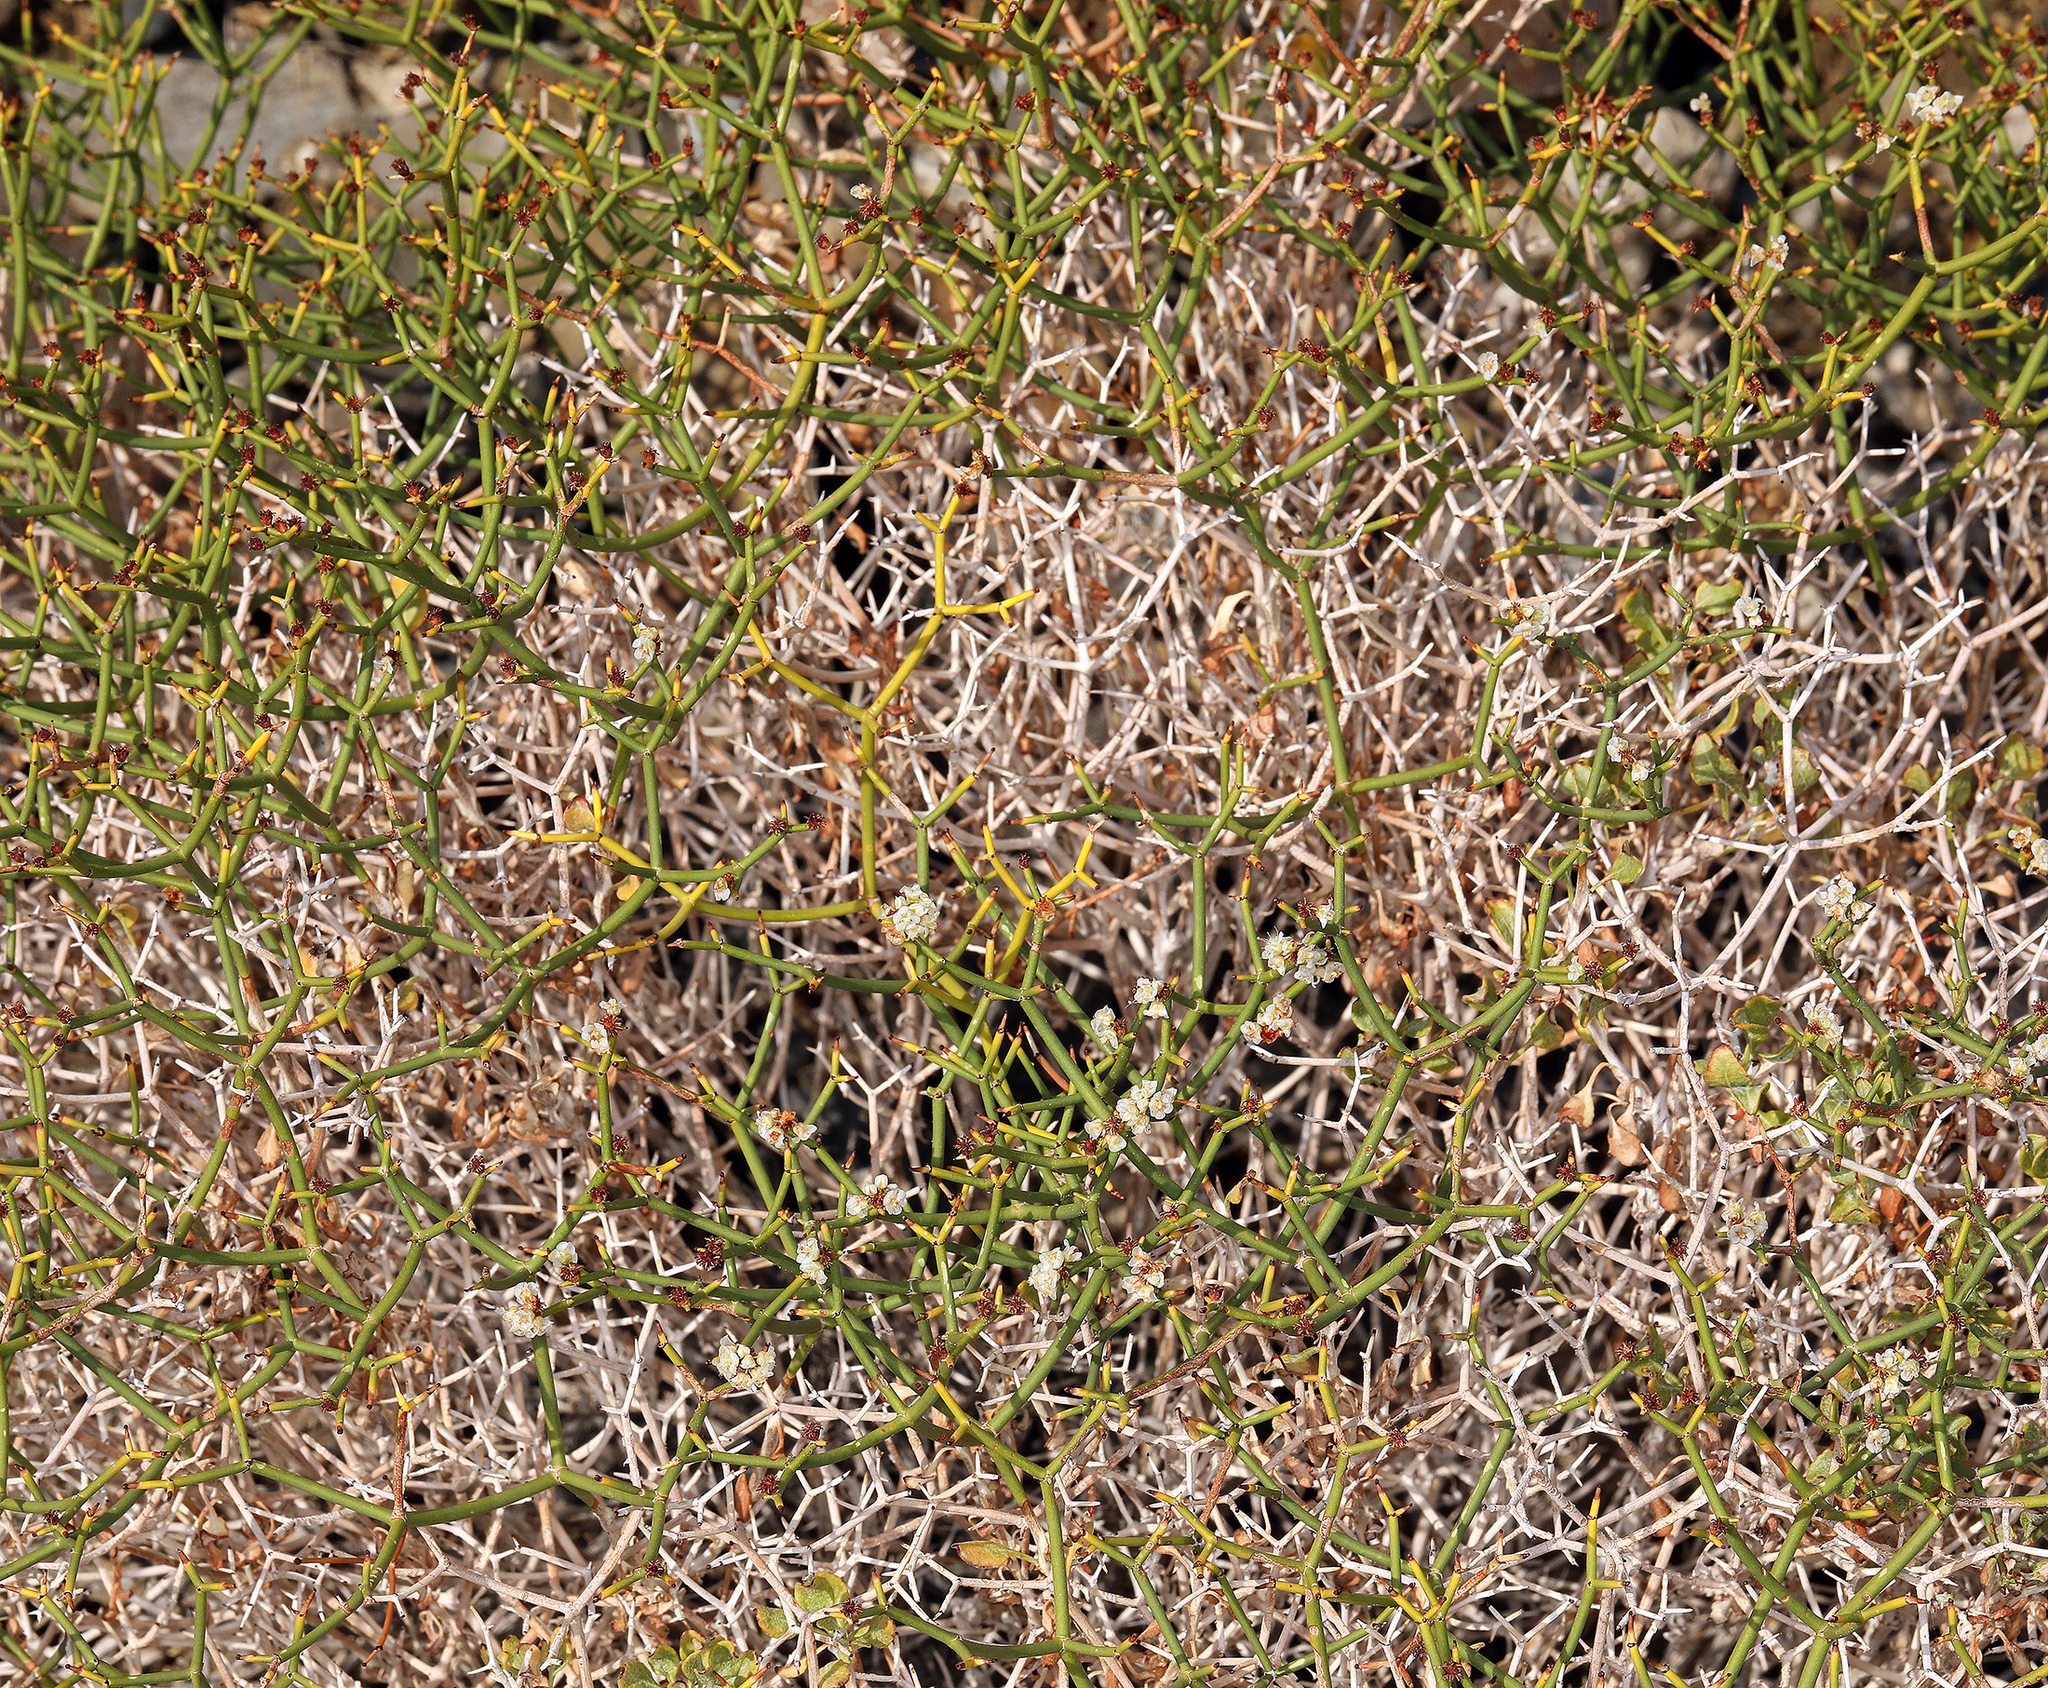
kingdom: Plantae
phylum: Tracheophyta
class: Magnoliopsida
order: Caryophyllales
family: Polygonaceae
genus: Eriogonum
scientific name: Eriogonum heermannii
